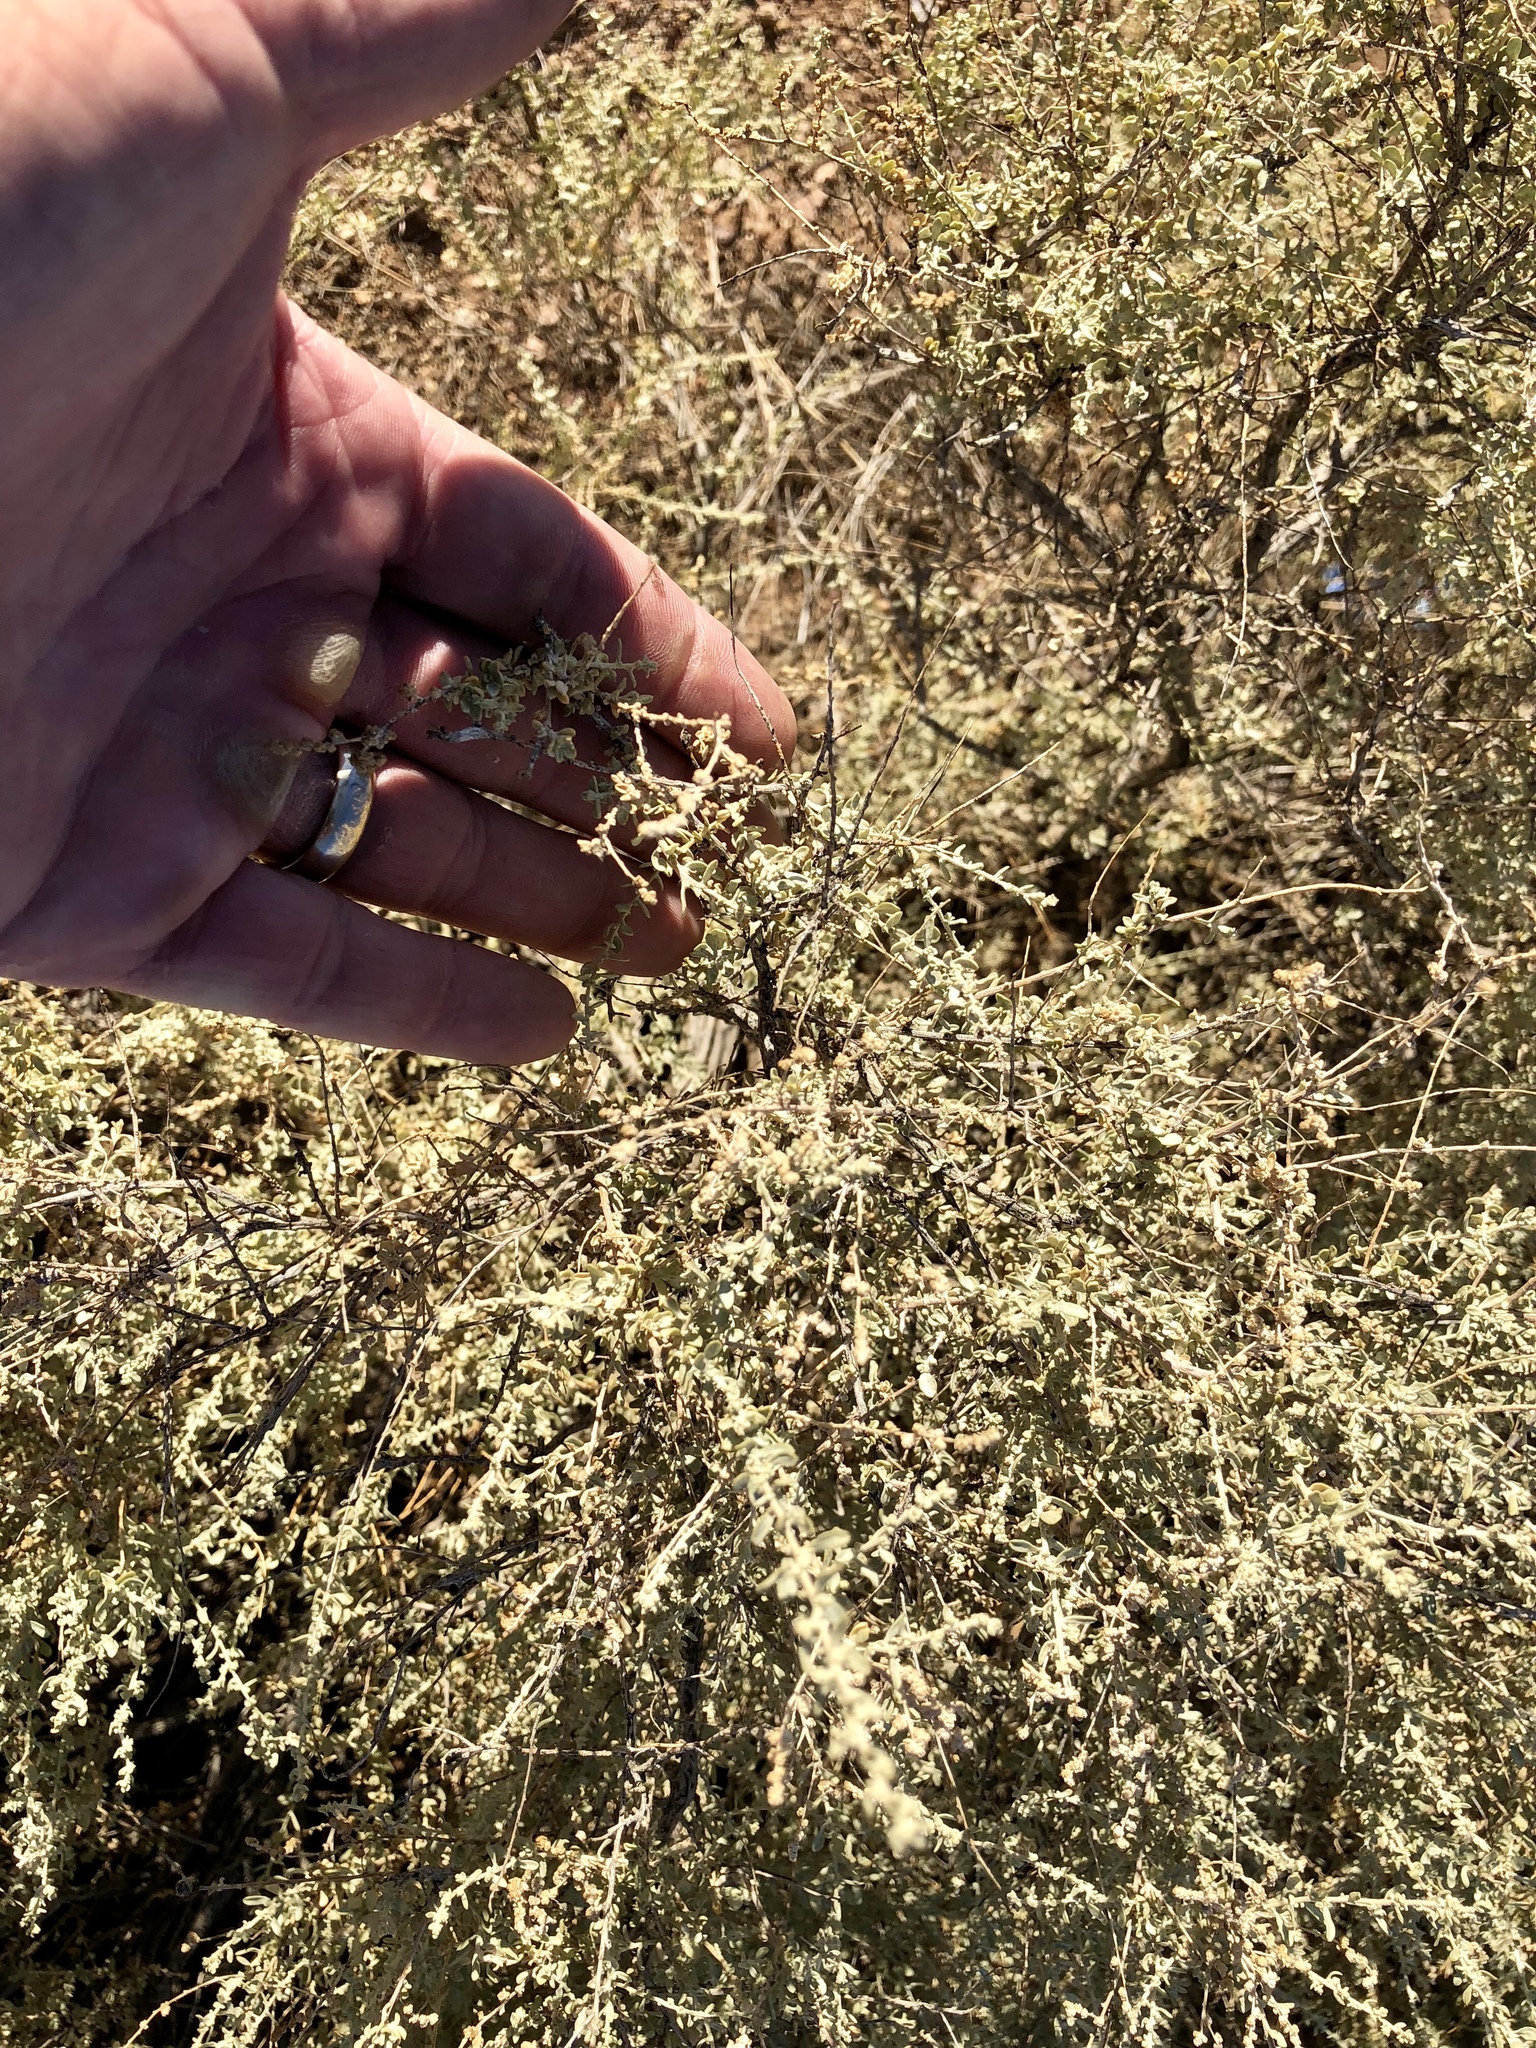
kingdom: Plantae
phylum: Tracheophyta
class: Magnoliopsida
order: Caryophyllales
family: Amaranthaceae
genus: Atriplex
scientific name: Atriplex canescens
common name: Four-wing saltbush
